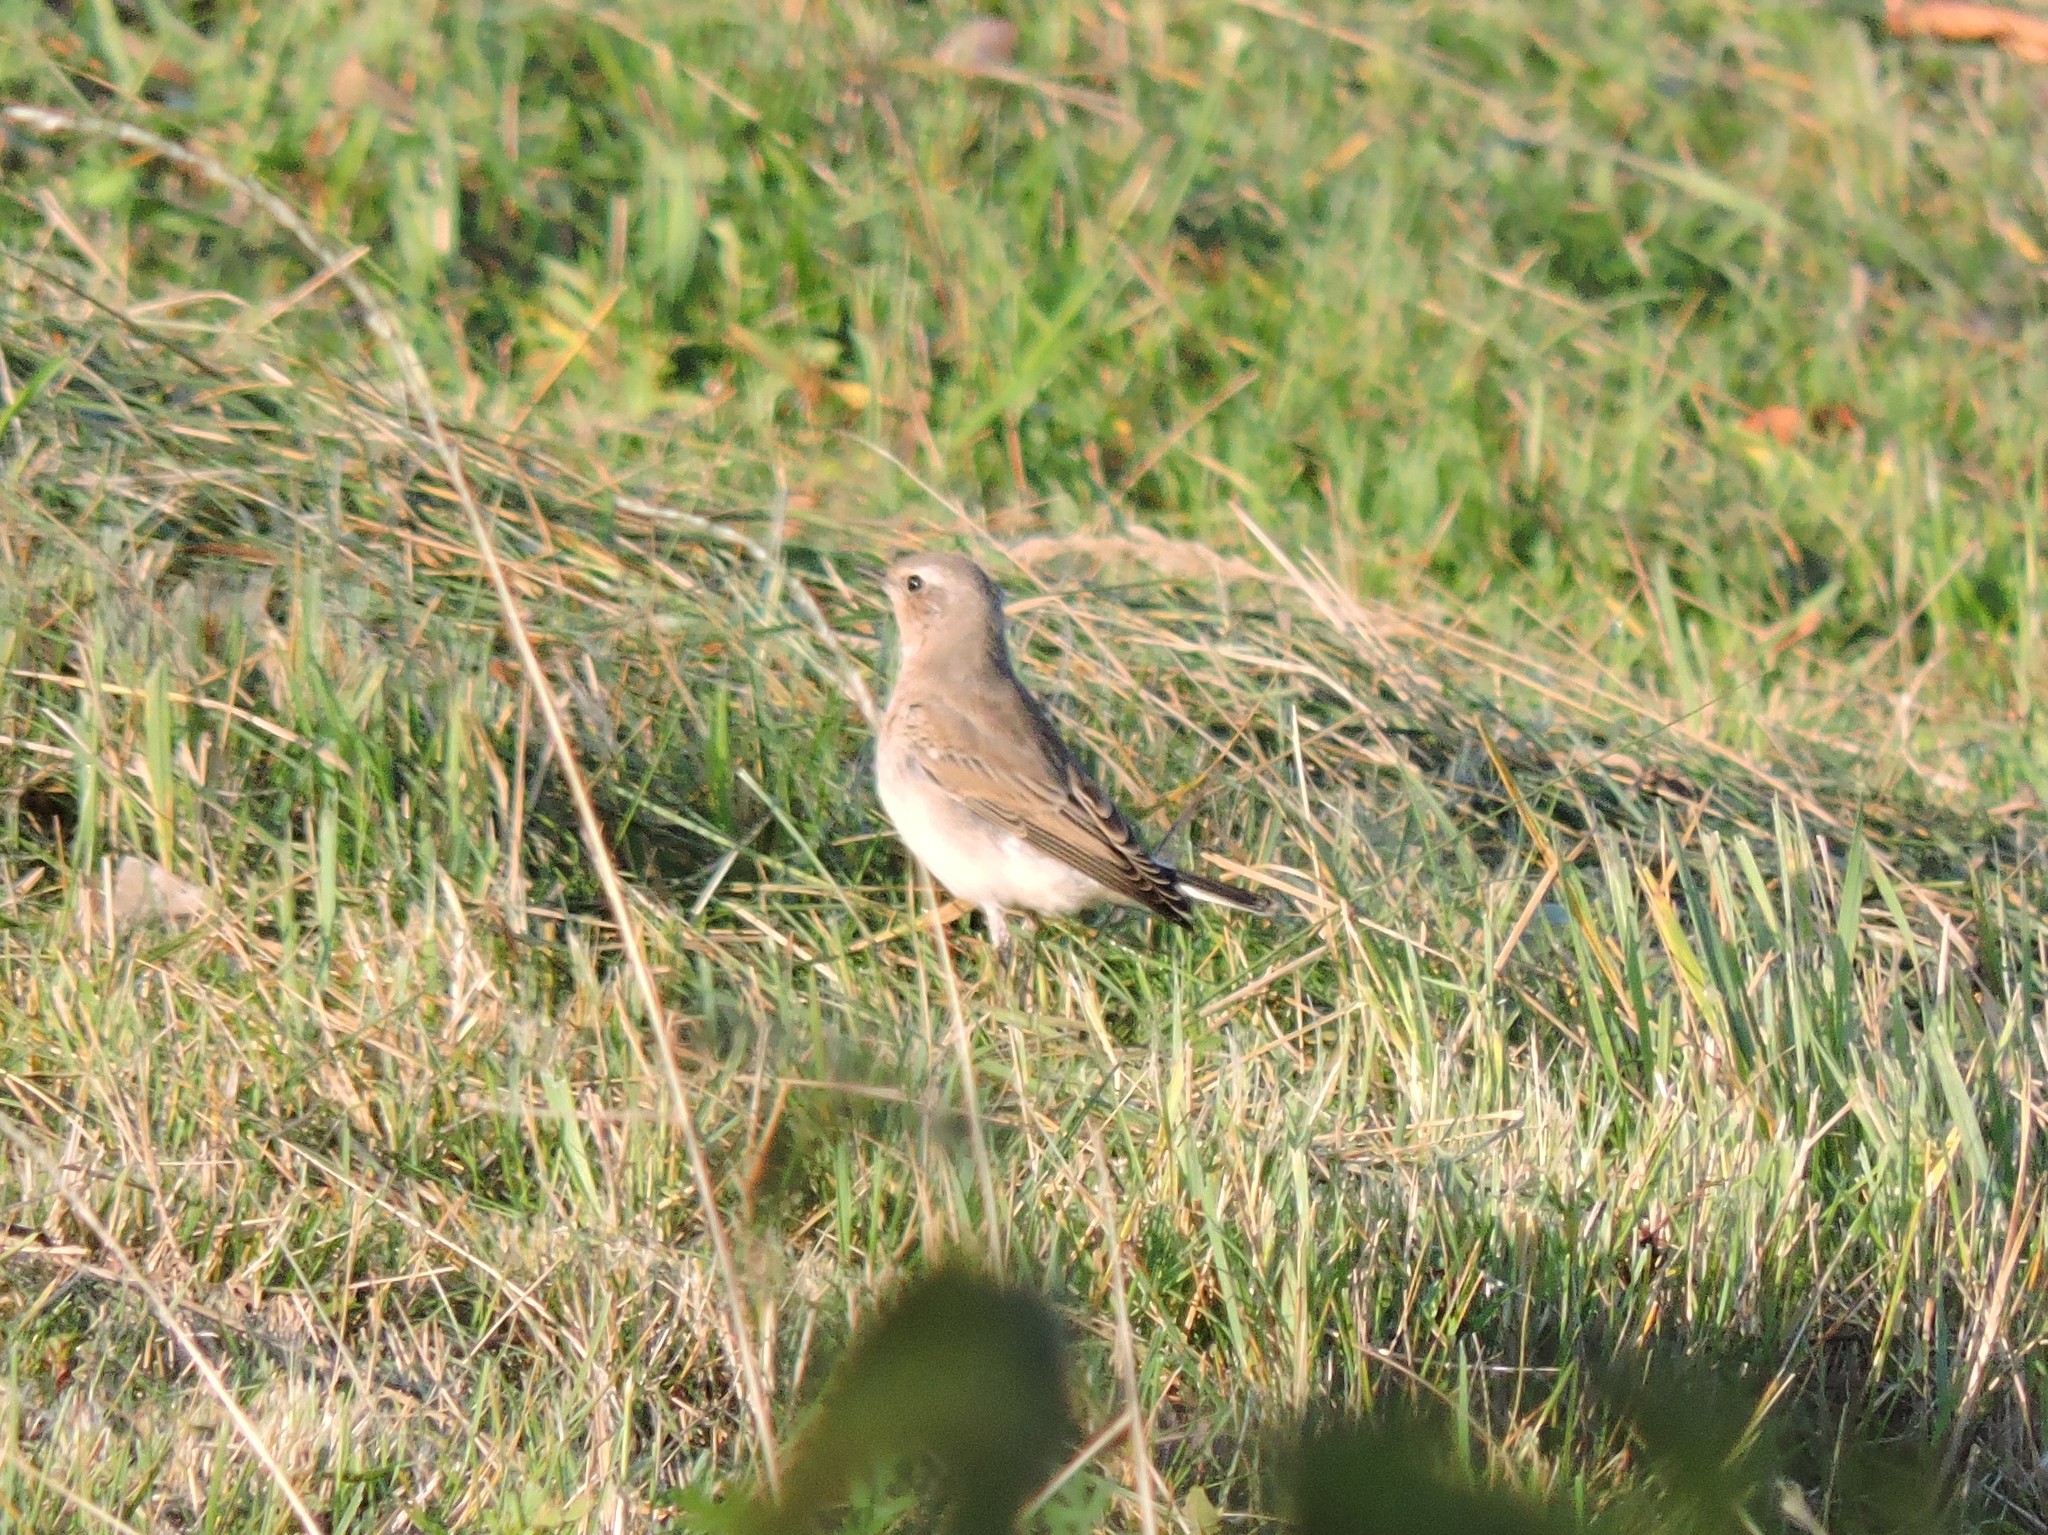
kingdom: Animalia
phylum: Chordata
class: Aves
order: Passeriformes
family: Muscicapidae
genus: Oenanthe
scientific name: Oenanthe oenanthe
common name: Northern wheatear
